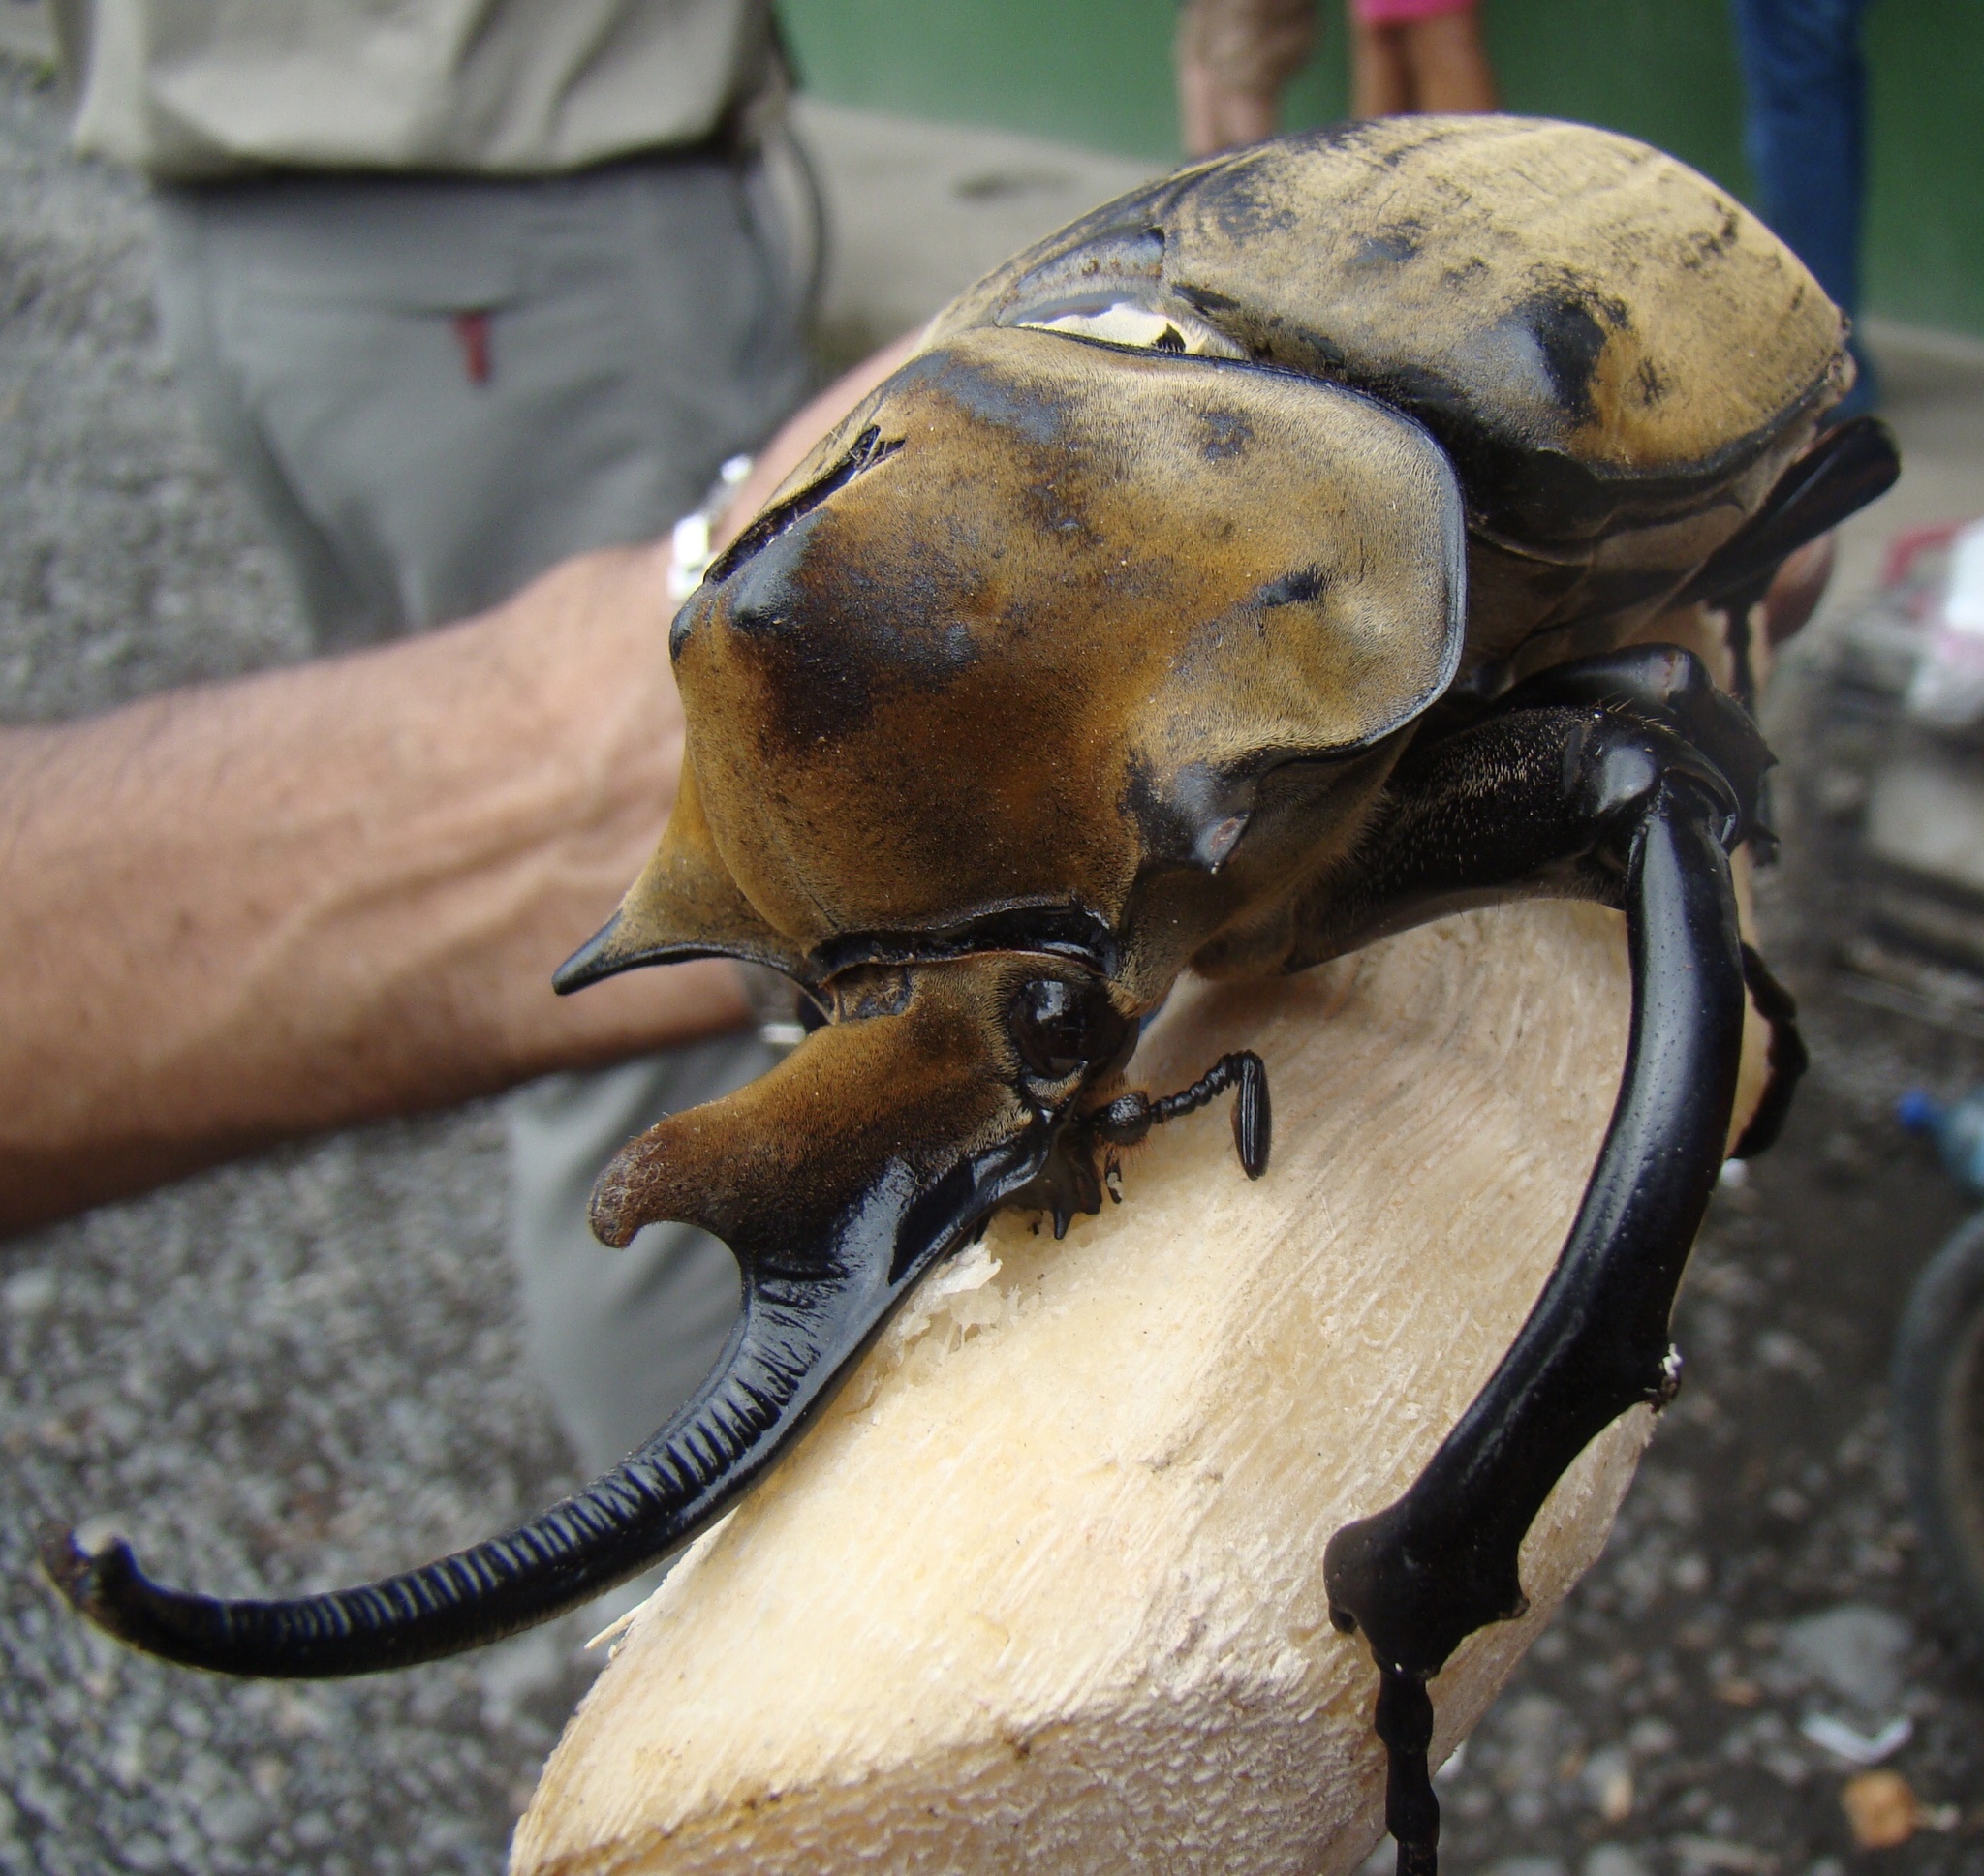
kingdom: Animalia
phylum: Arthropoda
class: Insecta
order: Coleoptera
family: Scarabaeidae
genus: Megasoma
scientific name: Megasoma elephas
